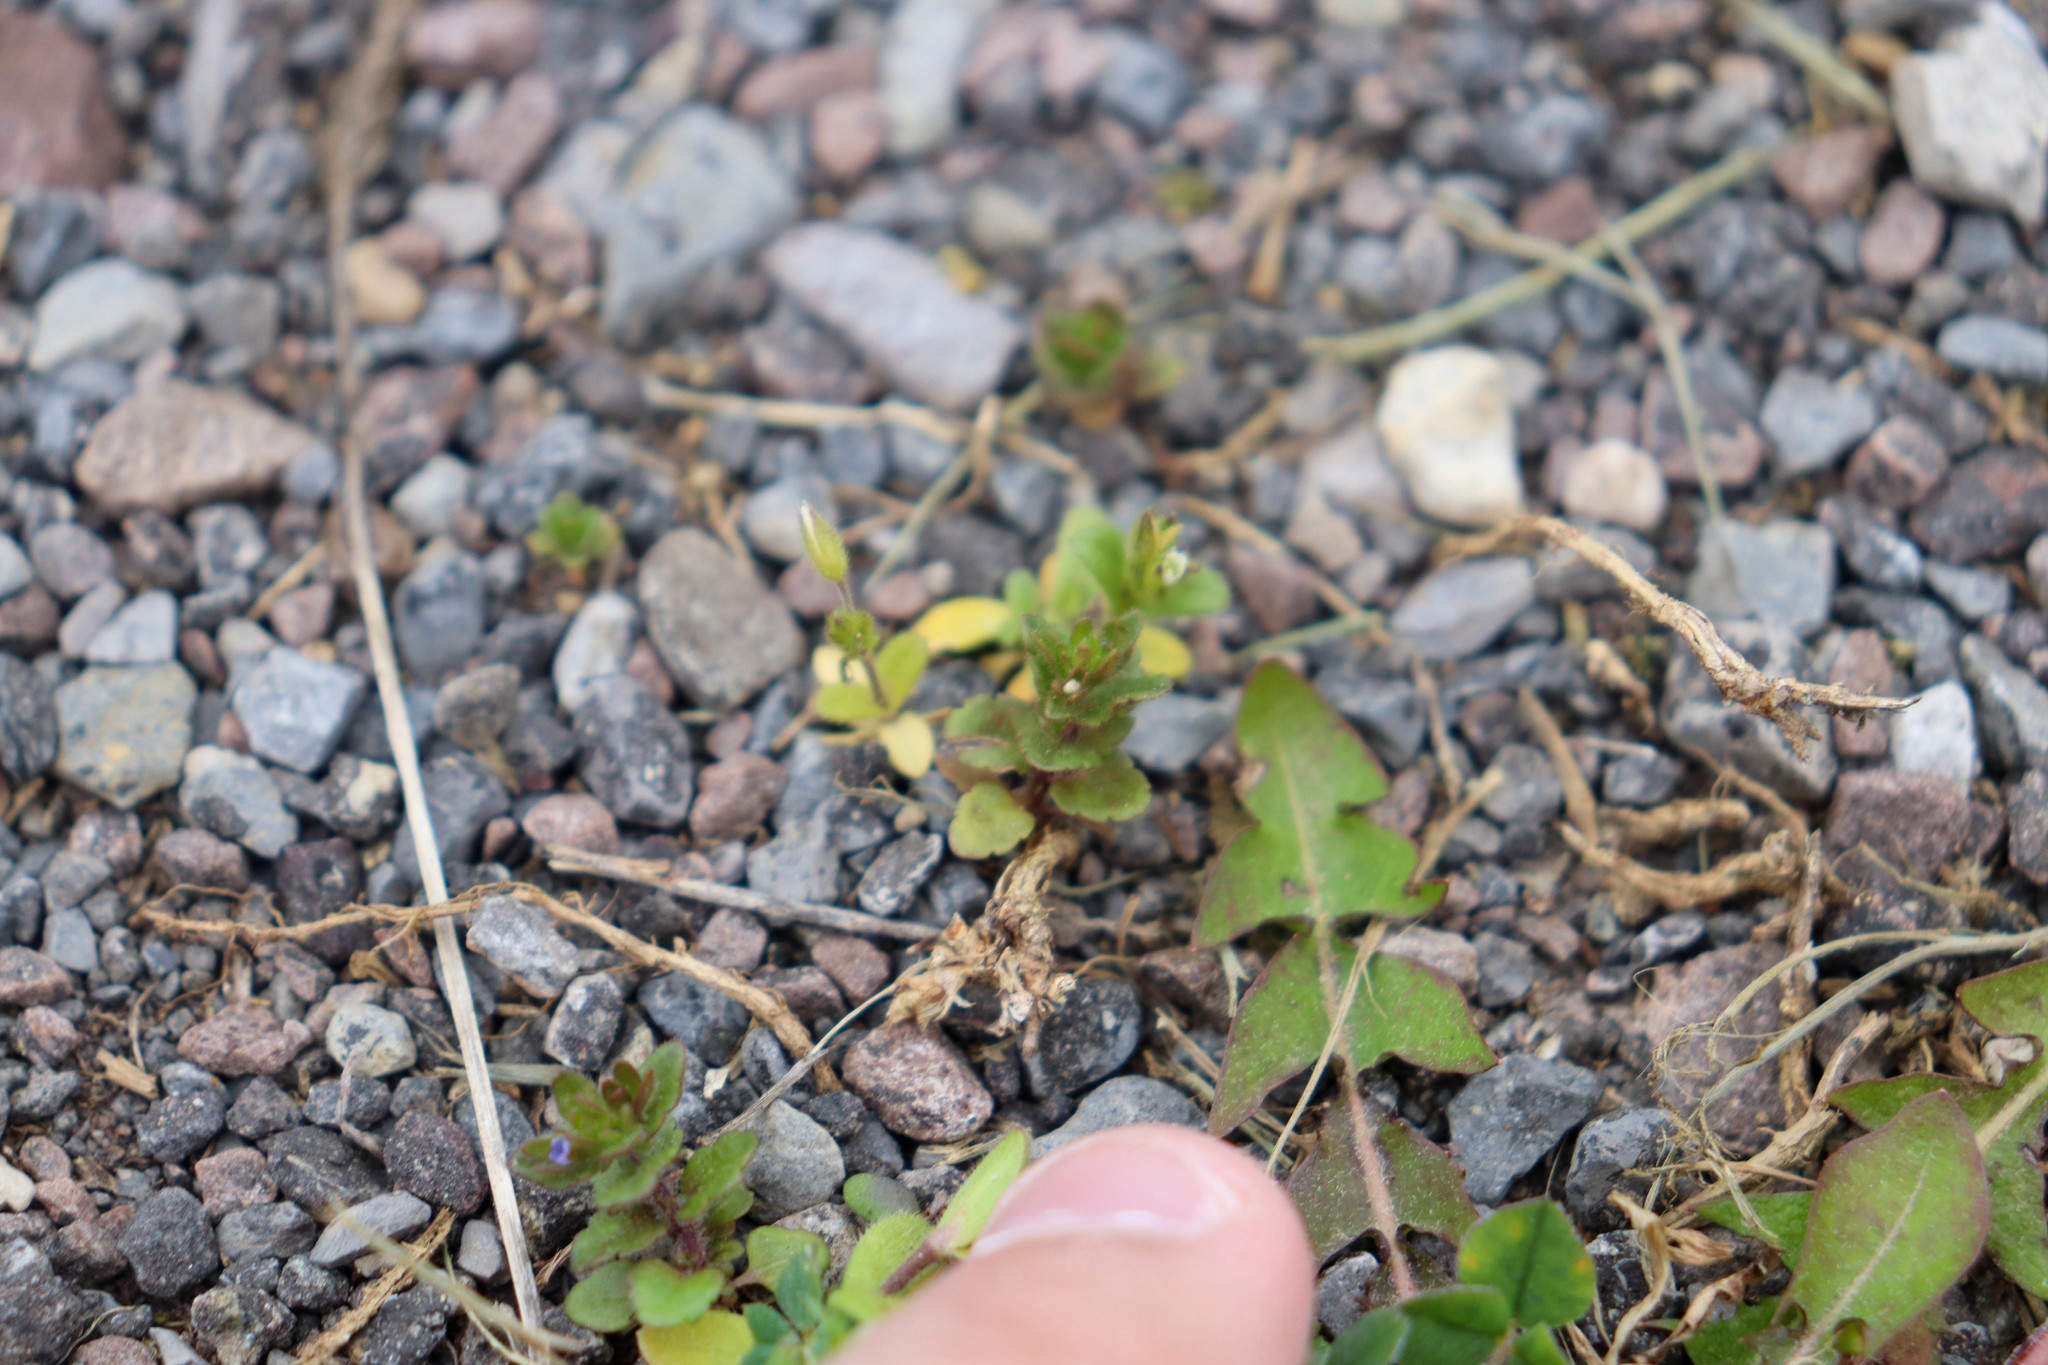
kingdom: Plantae
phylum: Tracheophyta
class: Magnoliopsida
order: Lamiales
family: Plantaginaceae
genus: Veronica
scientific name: Veronica arvensis
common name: Corn speedwell
